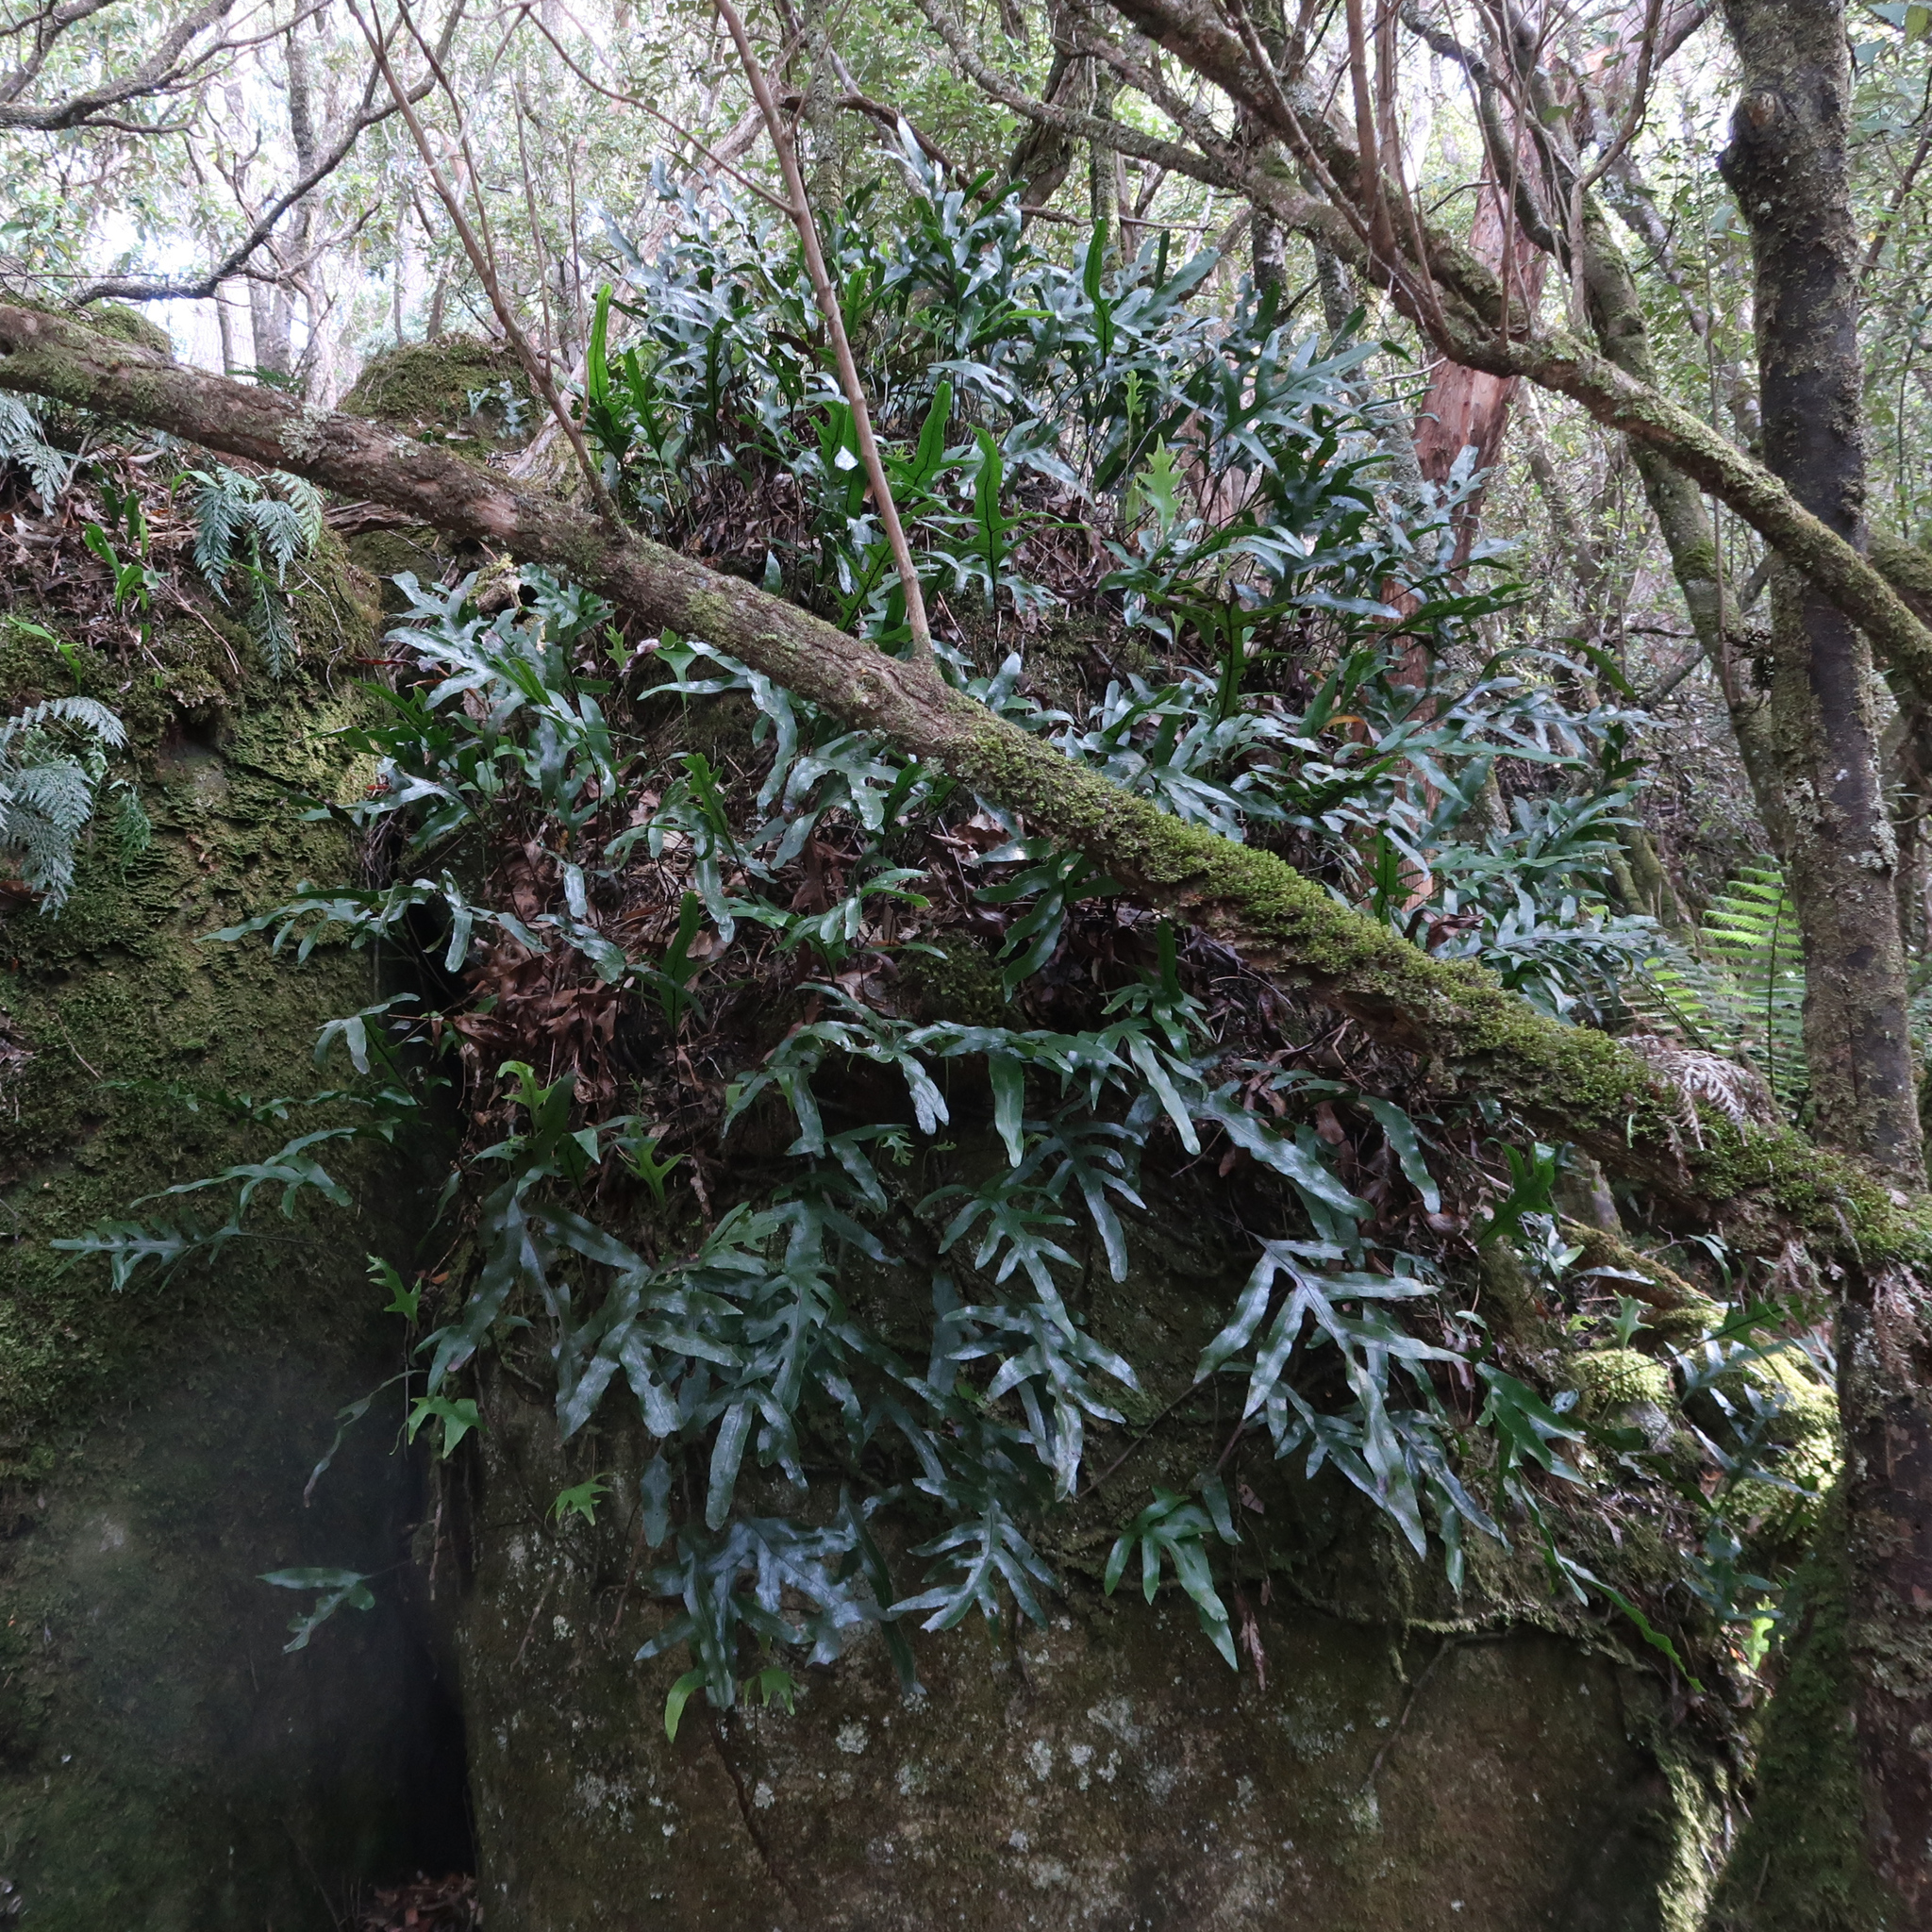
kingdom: Plantae
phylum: Tracheophyta
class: Polypodiopsida
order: Polypodiales
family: Polypodiaceae
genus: Lecanopteris
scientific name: Lecanopteris pustulata
